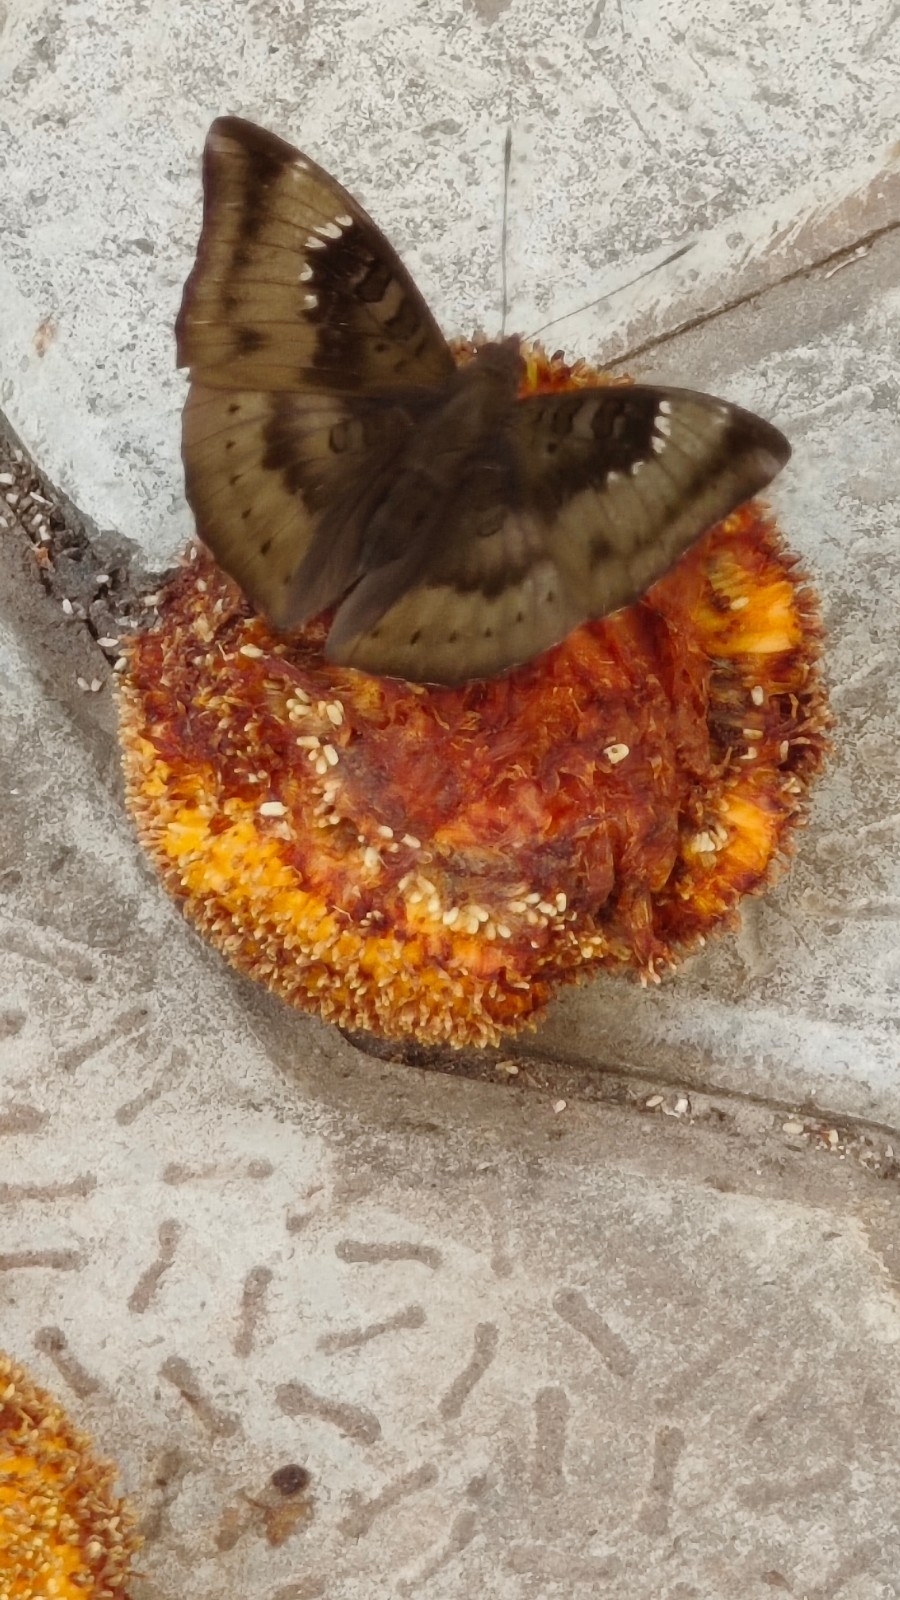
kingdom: Animalia
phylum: Arthropoda
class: Insecta
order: Lepidoptera
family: Nymphalidae
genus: Euthalia
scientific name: Euthalia aconthea
